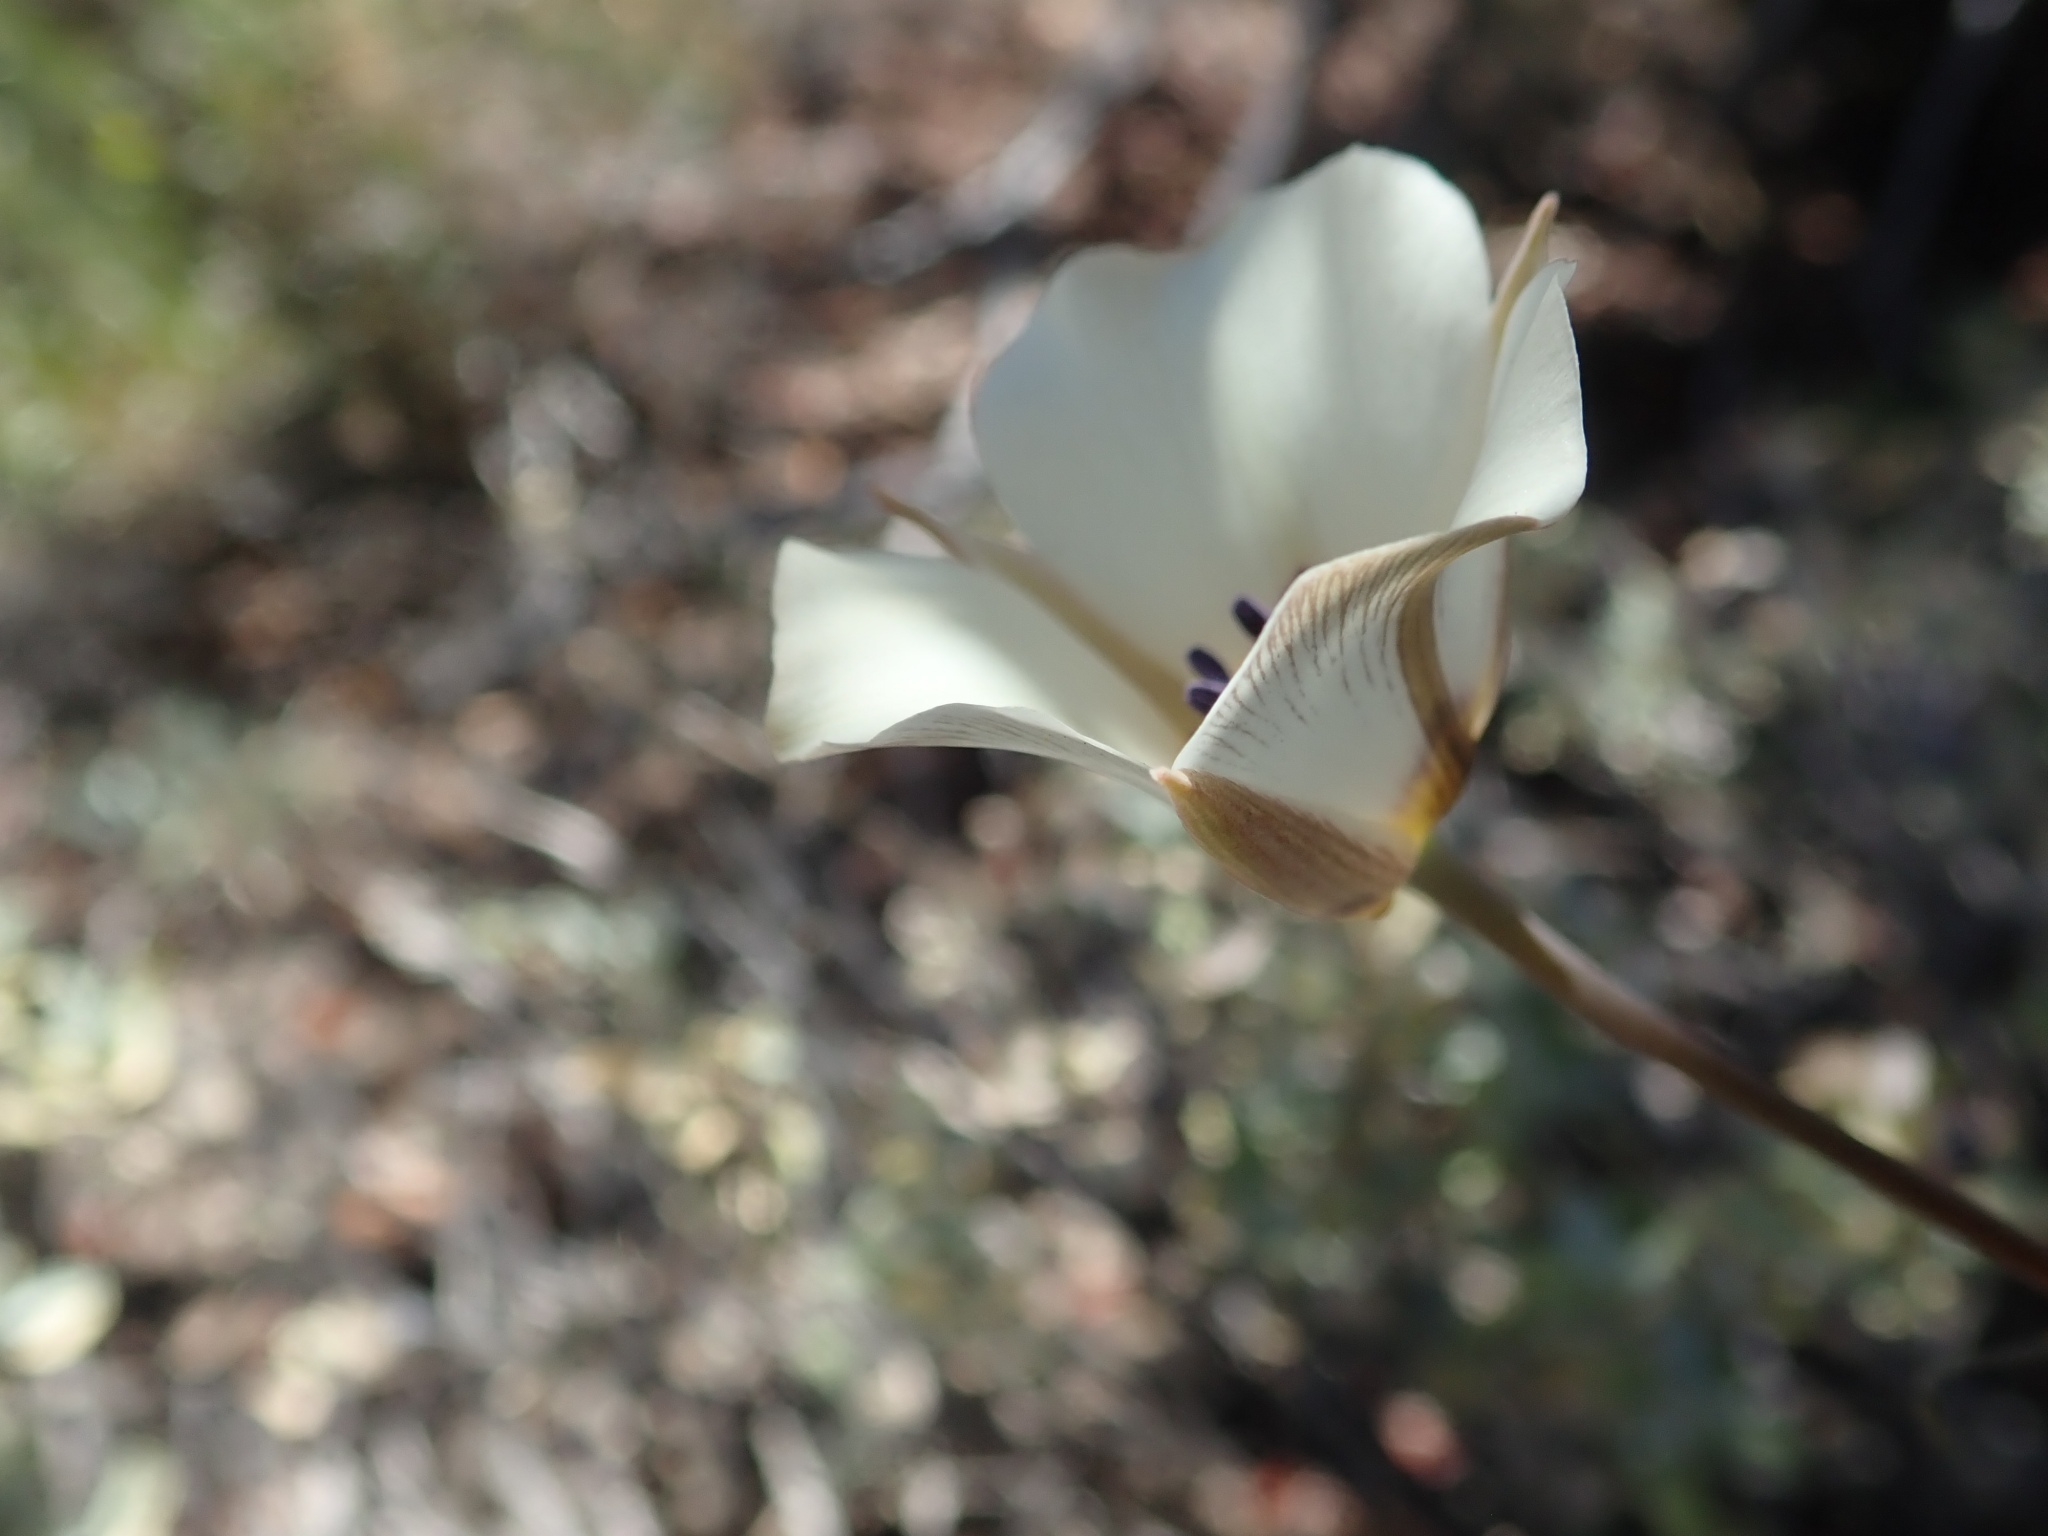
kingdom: Plantae
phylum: Tracheophyta
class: Liliopsida
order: Liliales
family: Liliaceae
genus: Calochortus
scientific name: Calochortus bruneaunis
